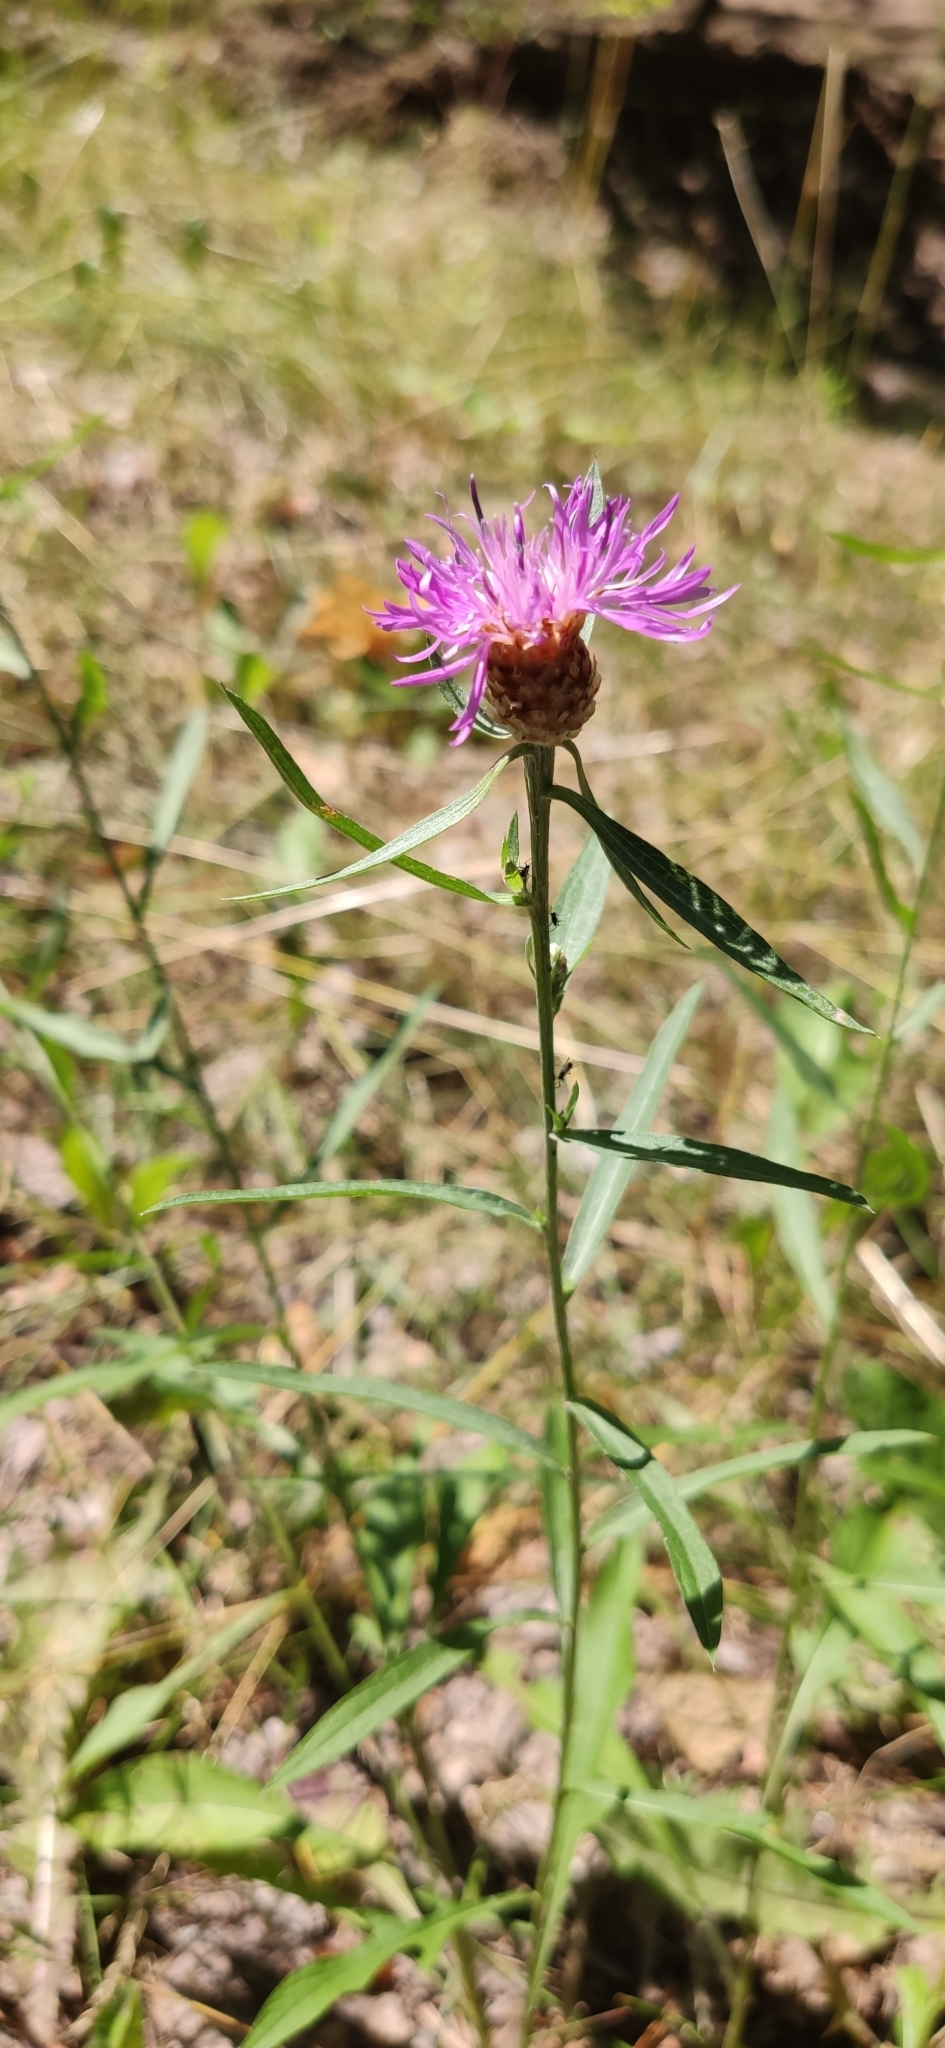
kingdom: Plantae
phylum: Tracheophyta
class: Magnoliopsida
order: Asterales
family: Asteraceae
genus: Centaurea
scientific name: Centaurea jacea
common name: Brown knapweed
